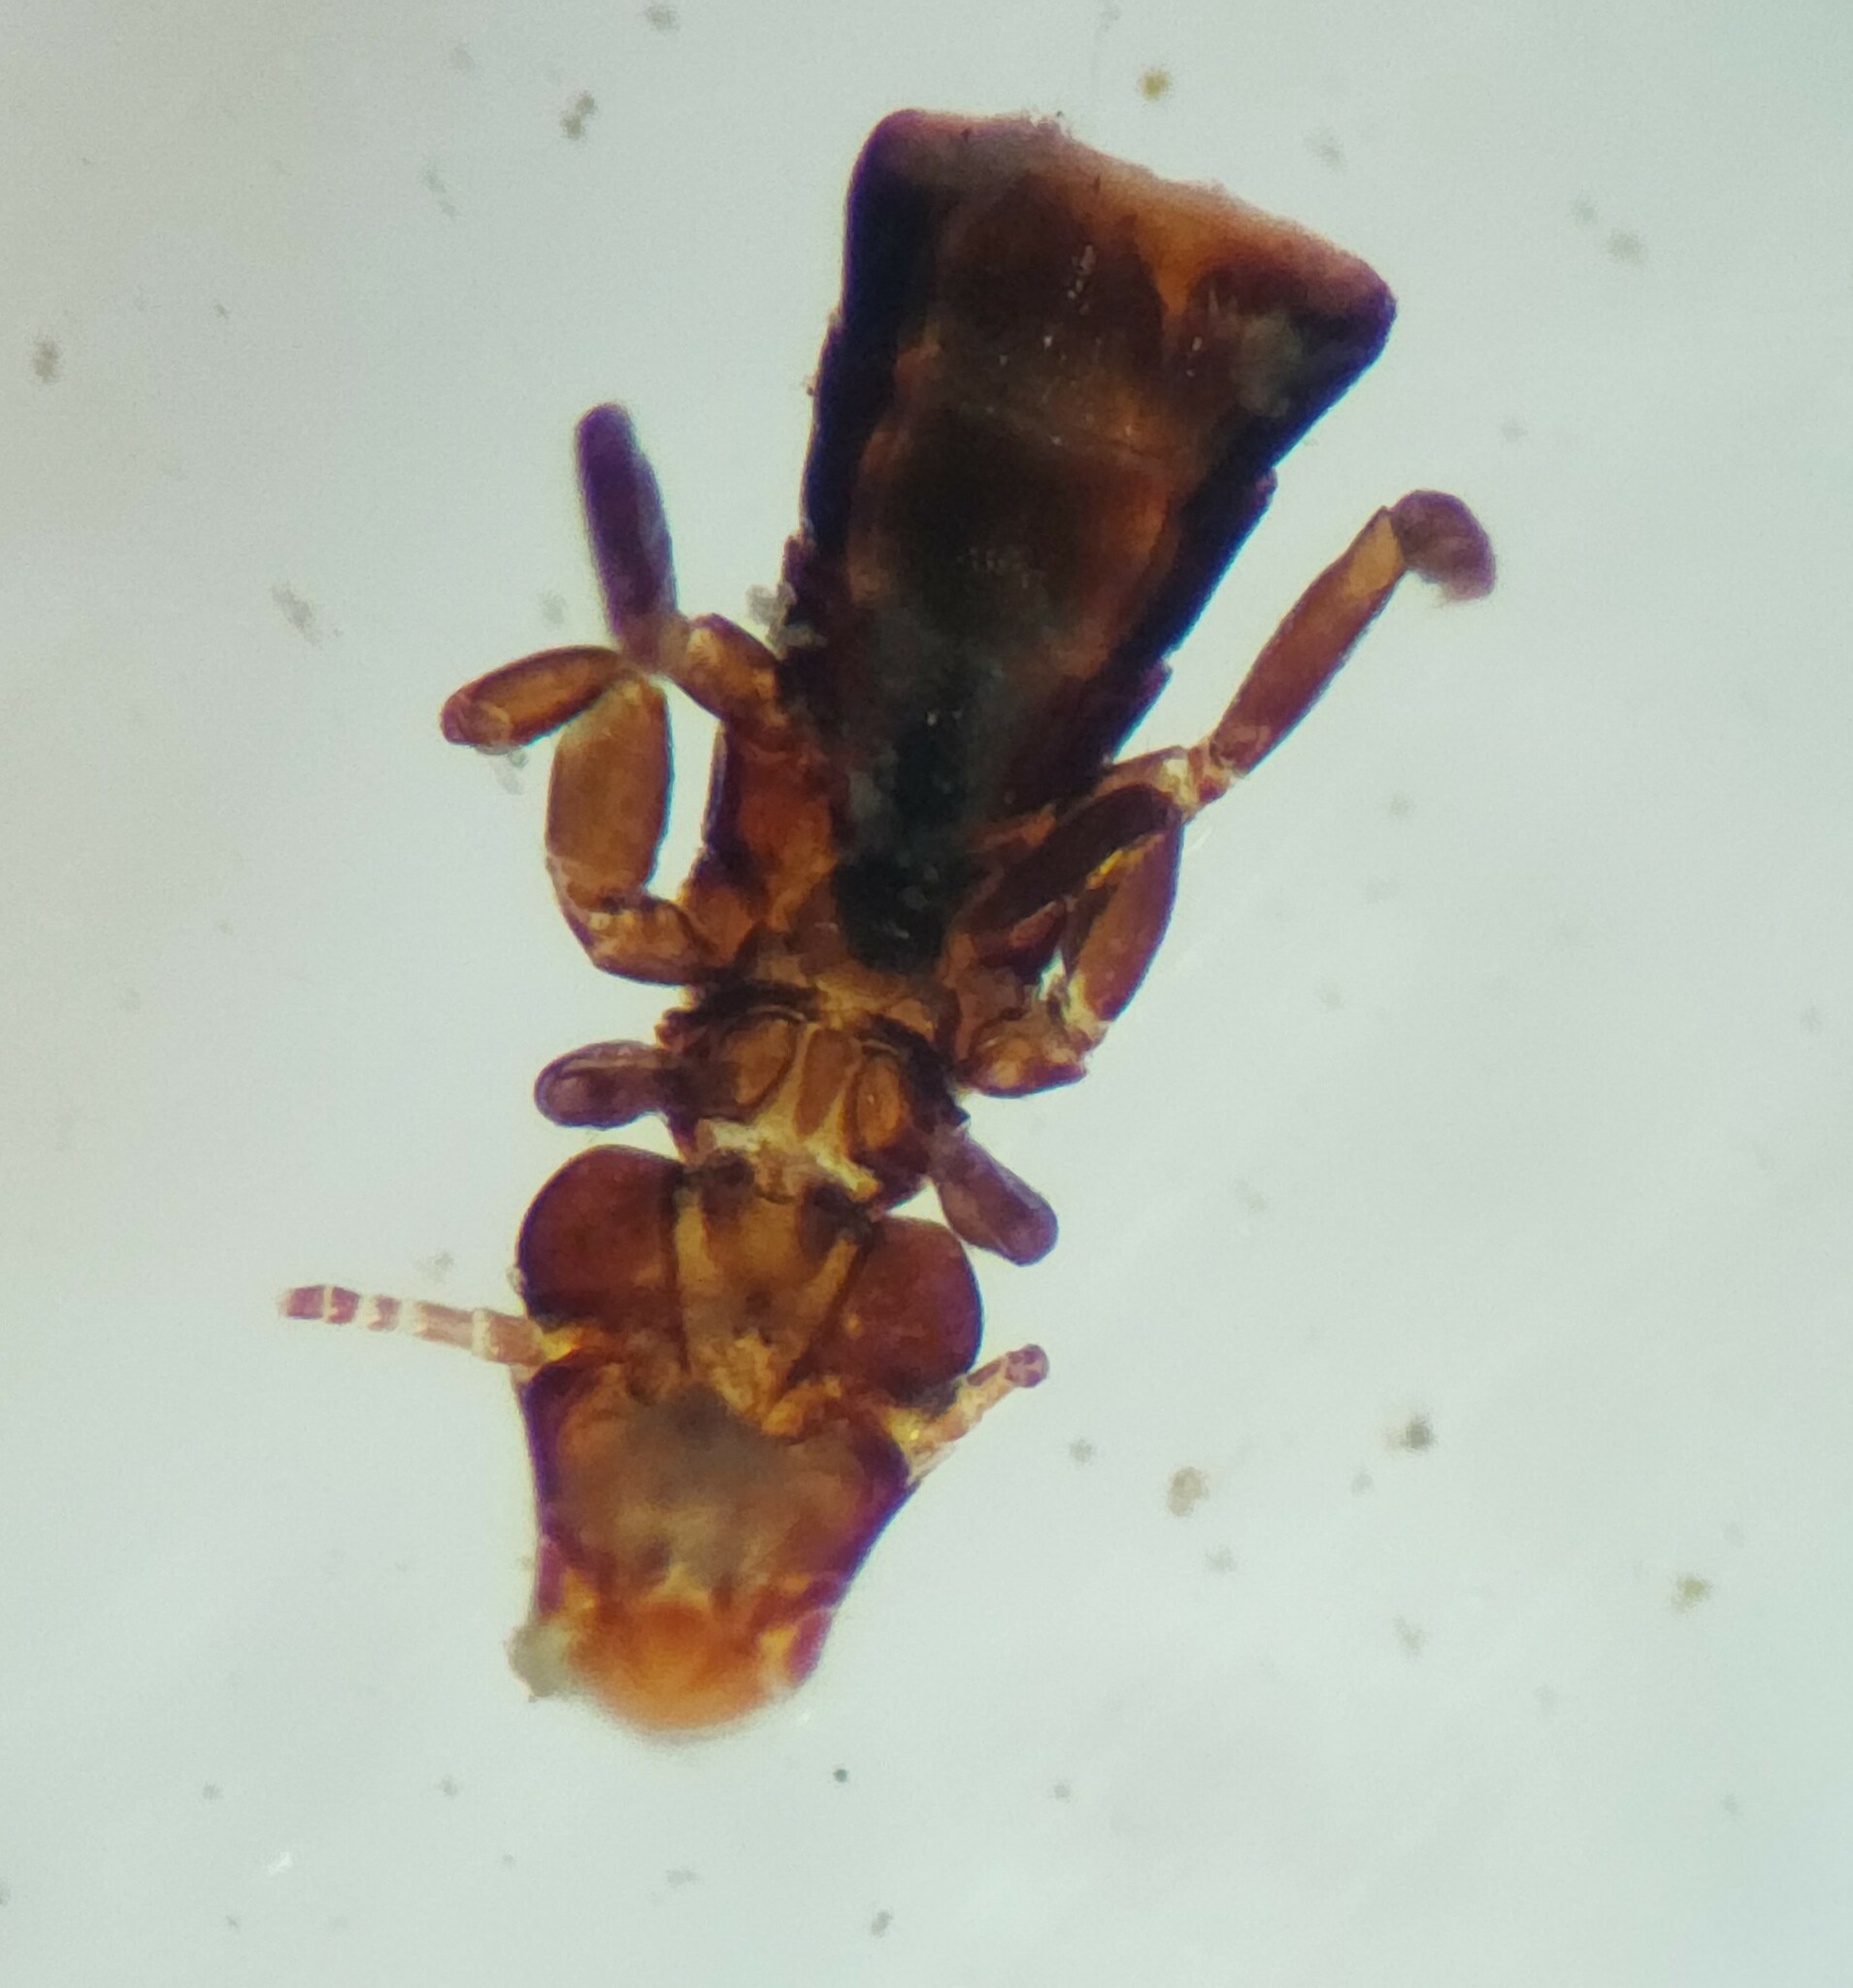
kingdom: Animalia
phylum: Arthropoda
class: Insecta
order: Psocodea
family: Philopteridae
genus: Naubates
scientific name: Naubates prioni
